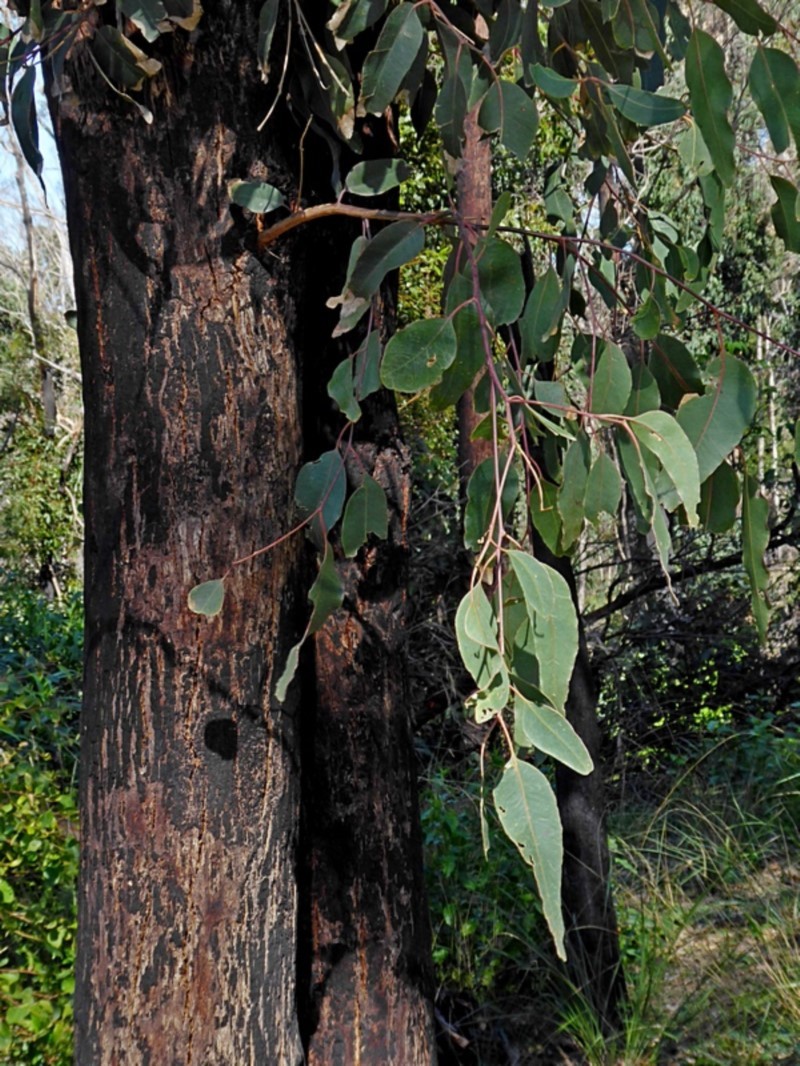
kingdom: Plantae
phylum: Tracheophyta
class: Magnoliopsida
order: Myrtales
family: Myrtaceae
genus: Eucalyptus
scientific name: Eucalyptus longifolia
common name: Woollybutt
